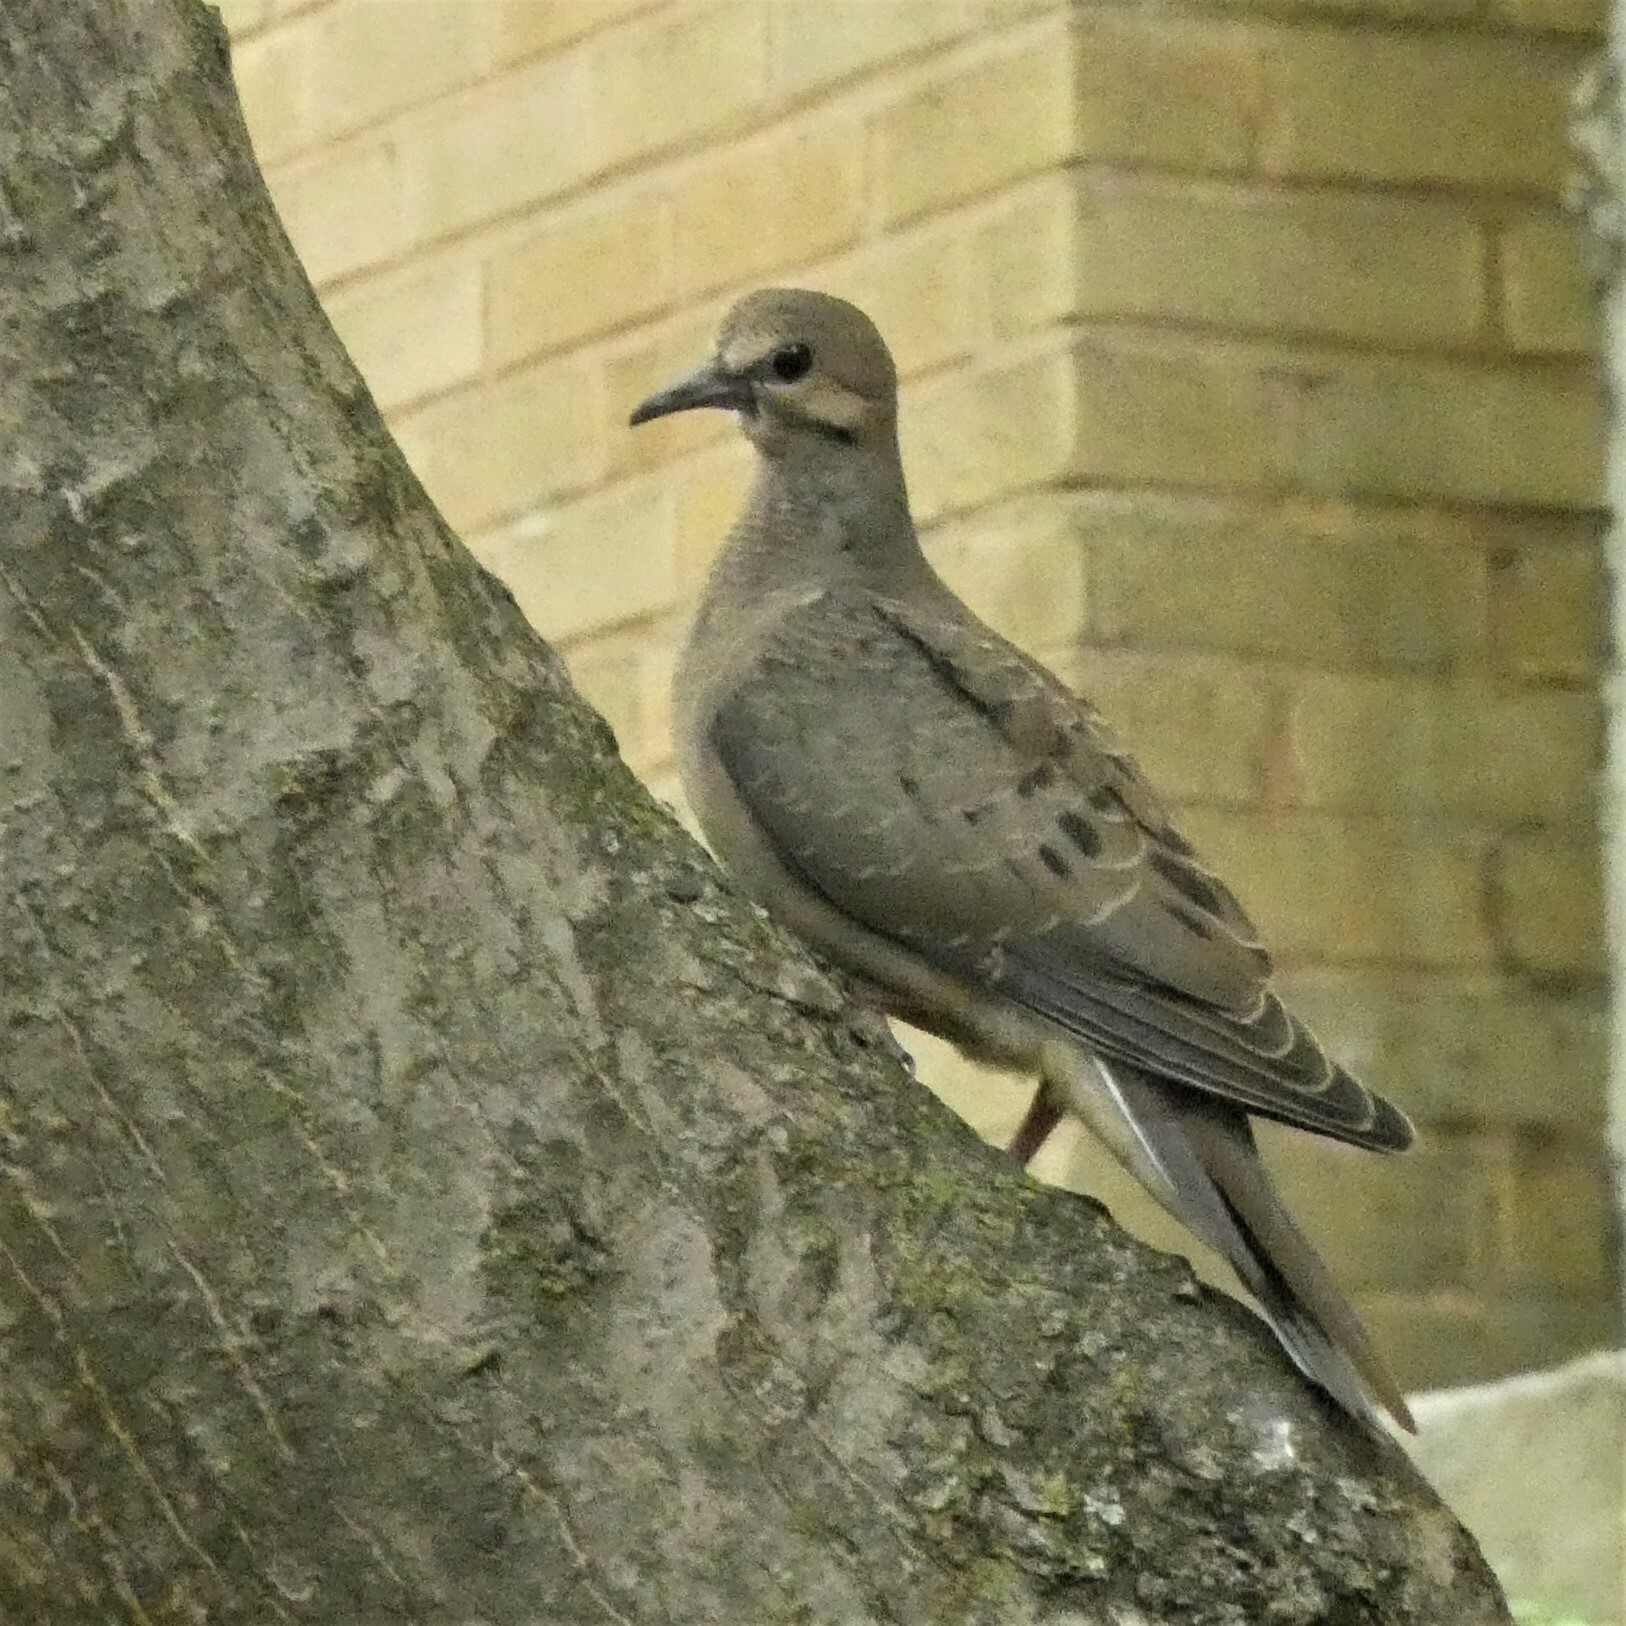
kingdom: Animalia
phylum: Chordata
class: Aves
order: Columbiformes
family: Columbidae
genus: Zenaida
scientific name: Zenaida macroura
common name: Mourning dove
